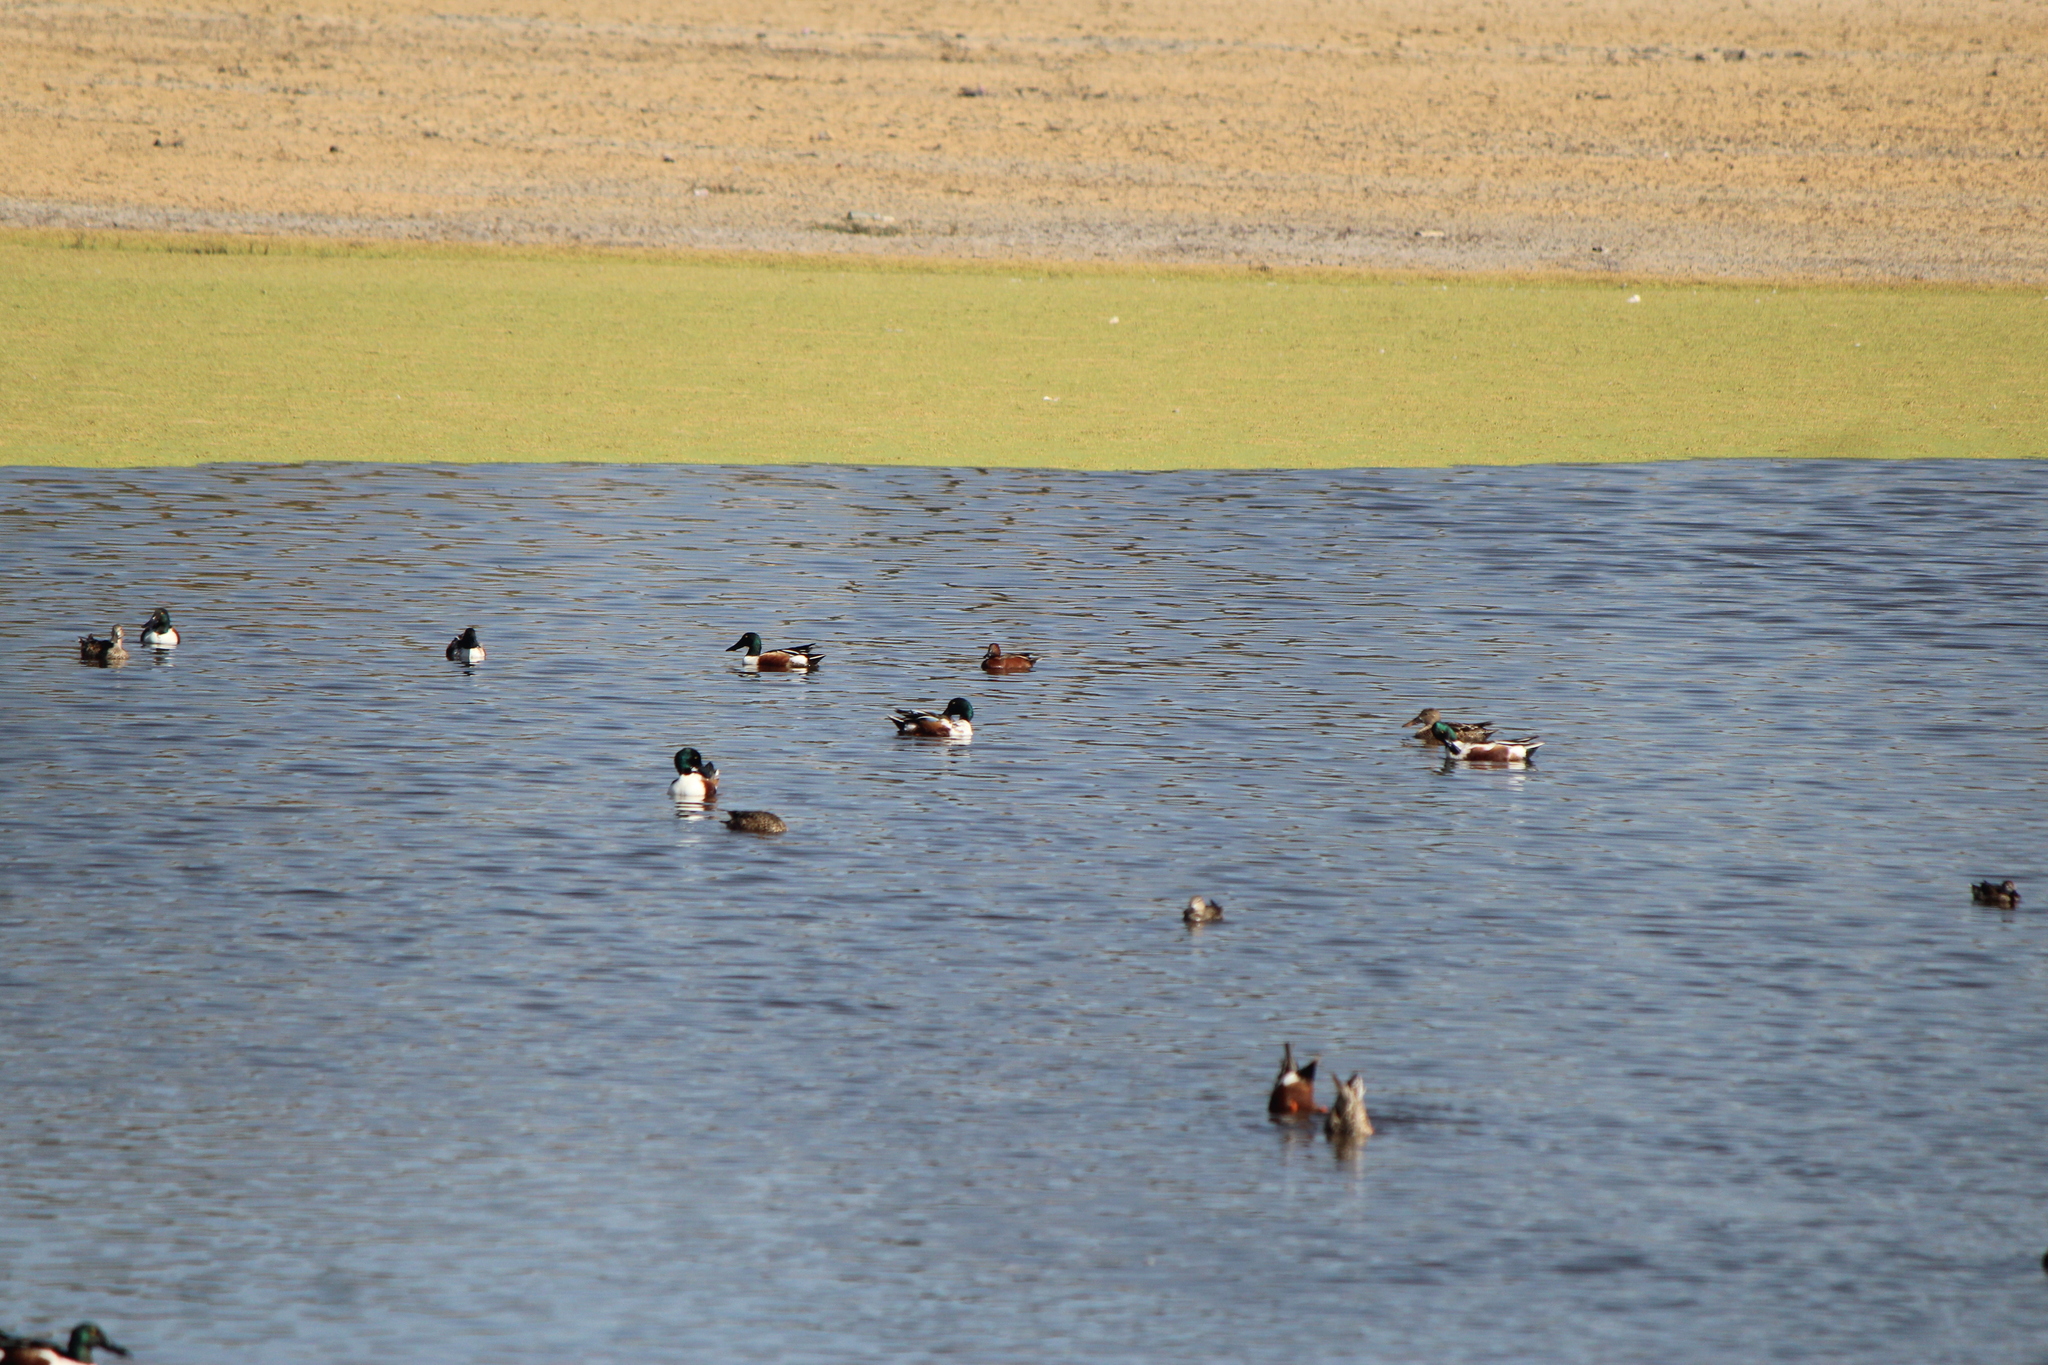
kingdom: Animalia
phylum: Chordata
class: Aves
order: Anseriformes
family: Anatidae
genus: Spatula
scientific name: Spatula cyanoptera
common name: Cinnamon teal
